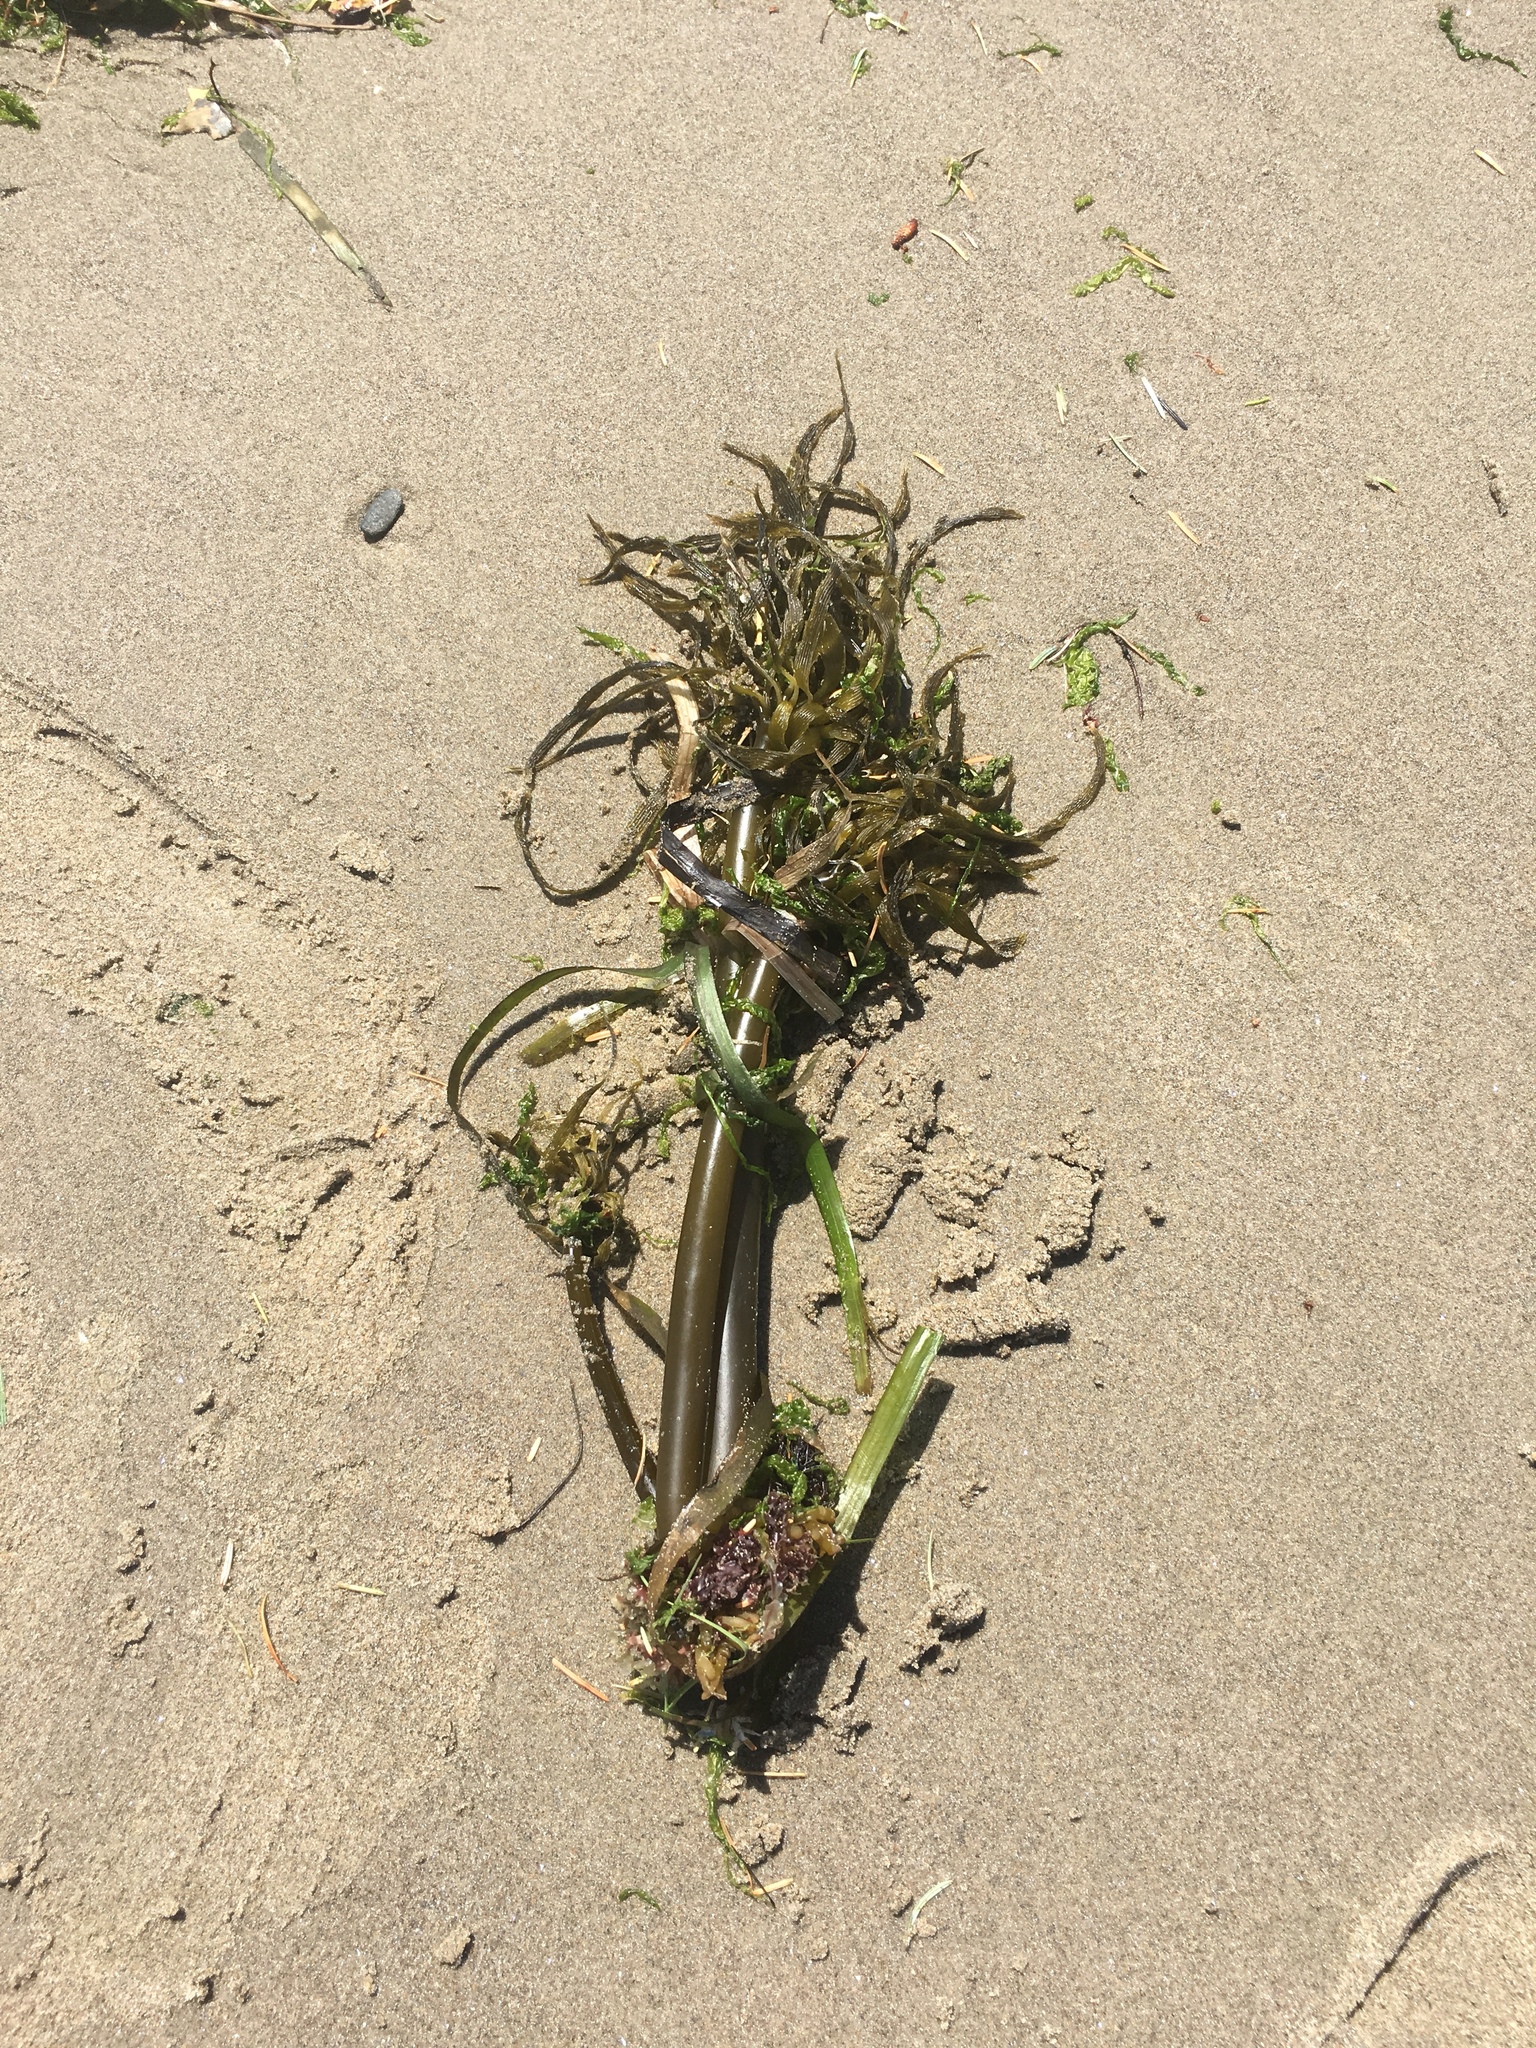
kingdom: Chromista
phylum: Ochrophyta
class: Phaeophyceae
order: Laminariales
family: Laminariaceae
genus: Postelsia
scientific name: Postelsia palmiformis
